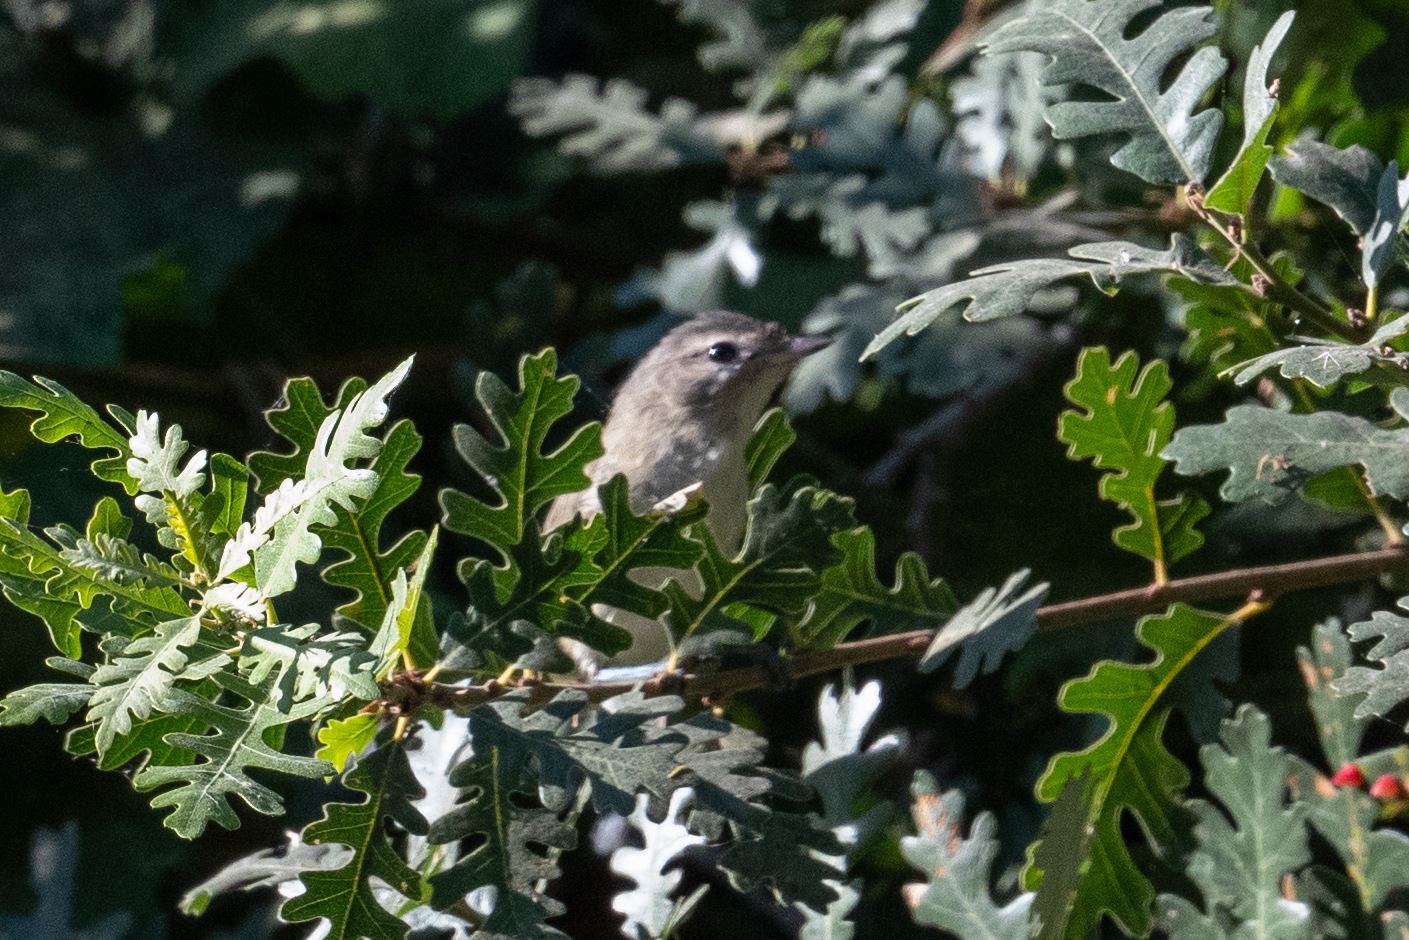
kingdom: Animalia
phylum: Chordata
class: Aves
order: Passeriformes
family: Vireonidae
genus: Vireo
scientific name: Vireo gilvus
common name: Warbling vireo
